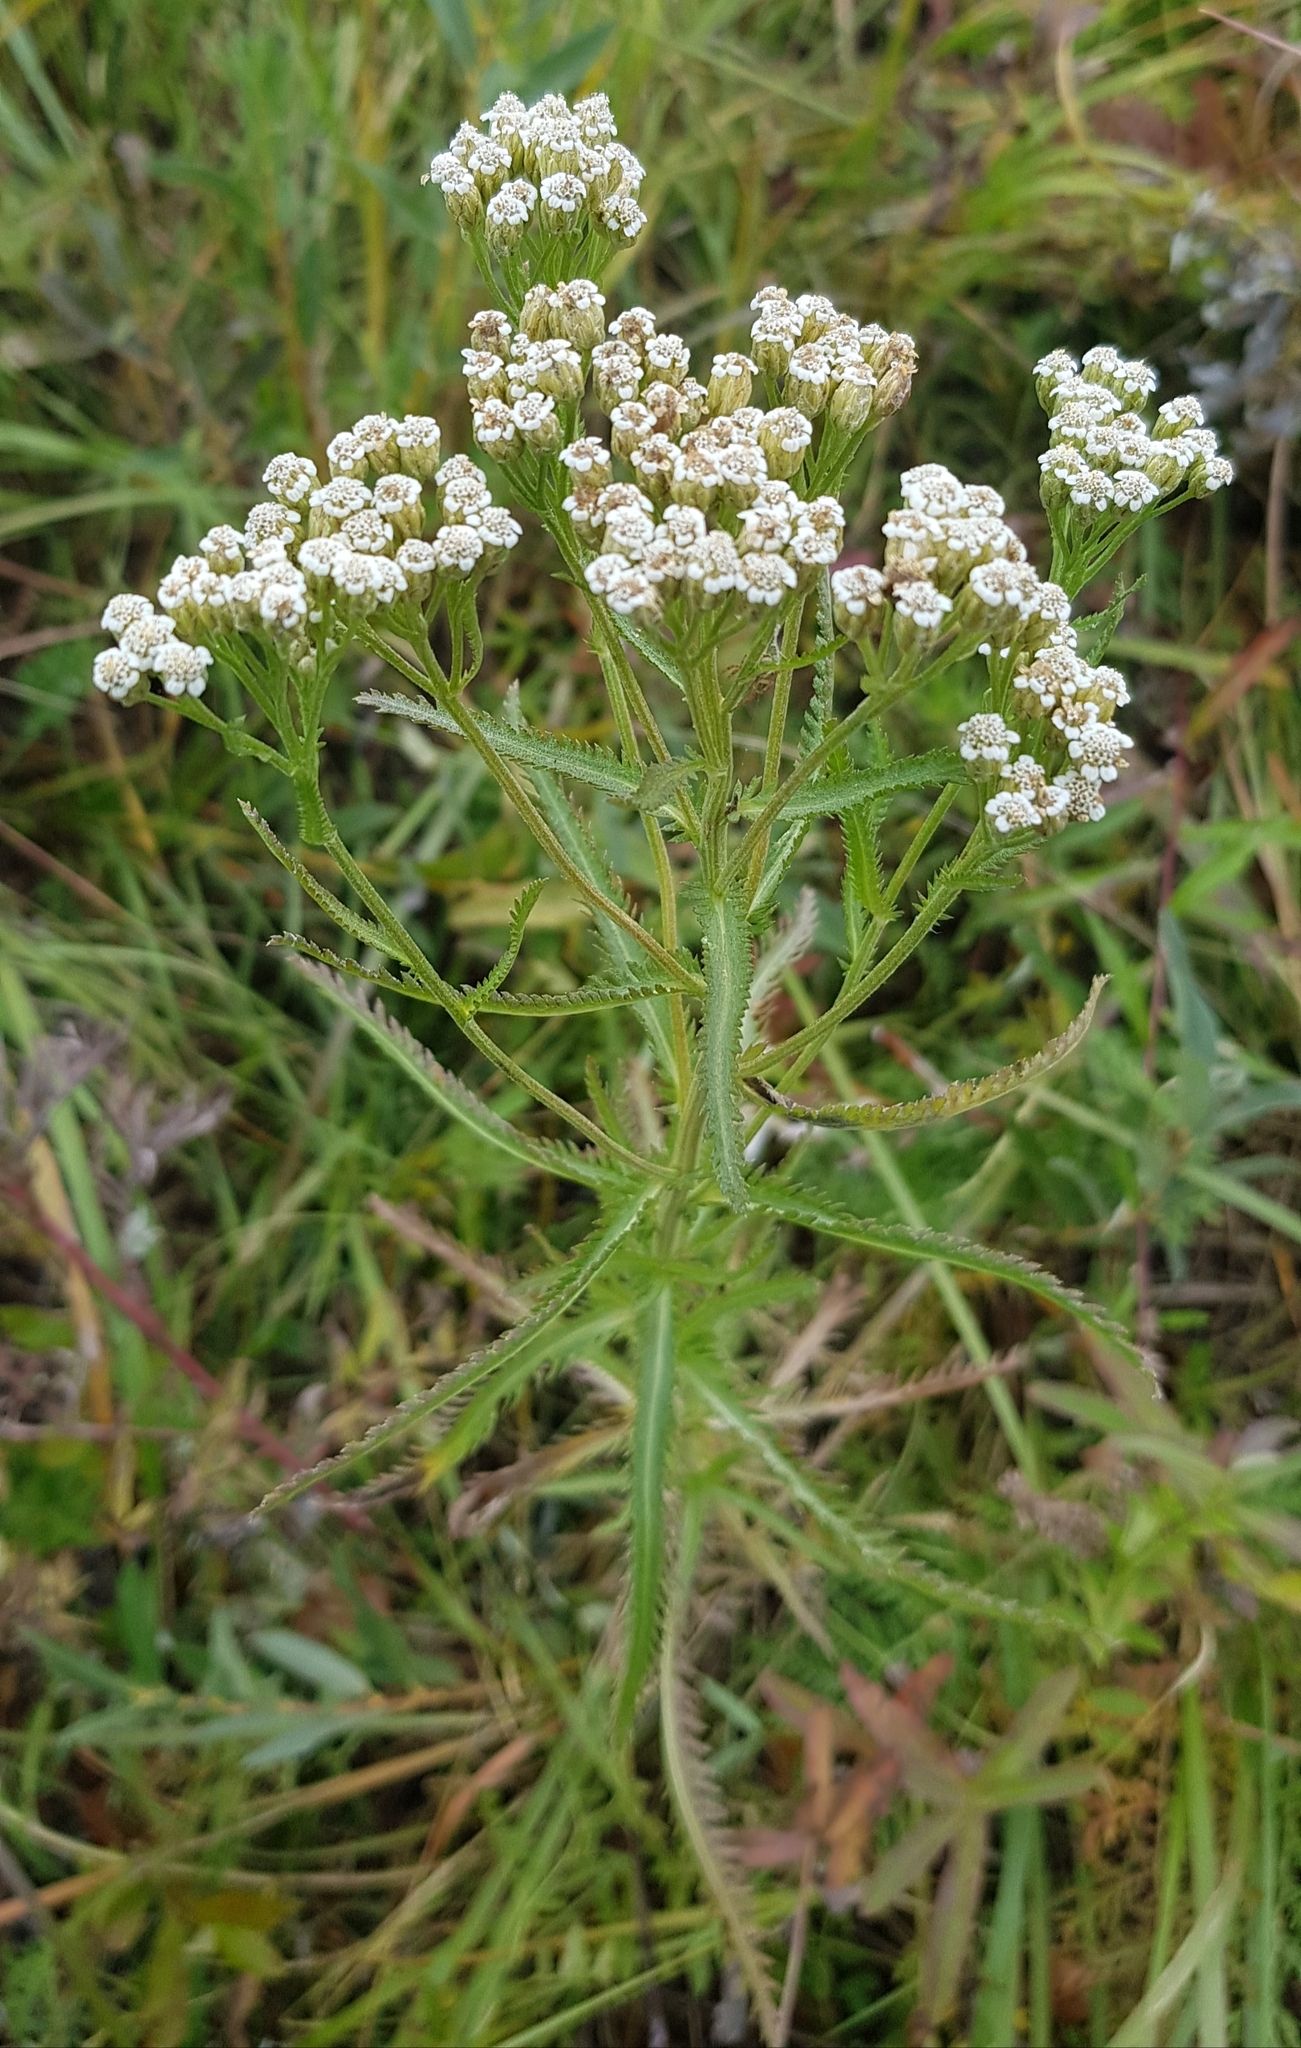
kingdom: Plantae
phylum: Tracheophyta
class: Magnoliopsida
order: Asterales
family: Asteraceae
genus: Achillea
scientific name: Achillea alpina
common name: Siberian yarrow
